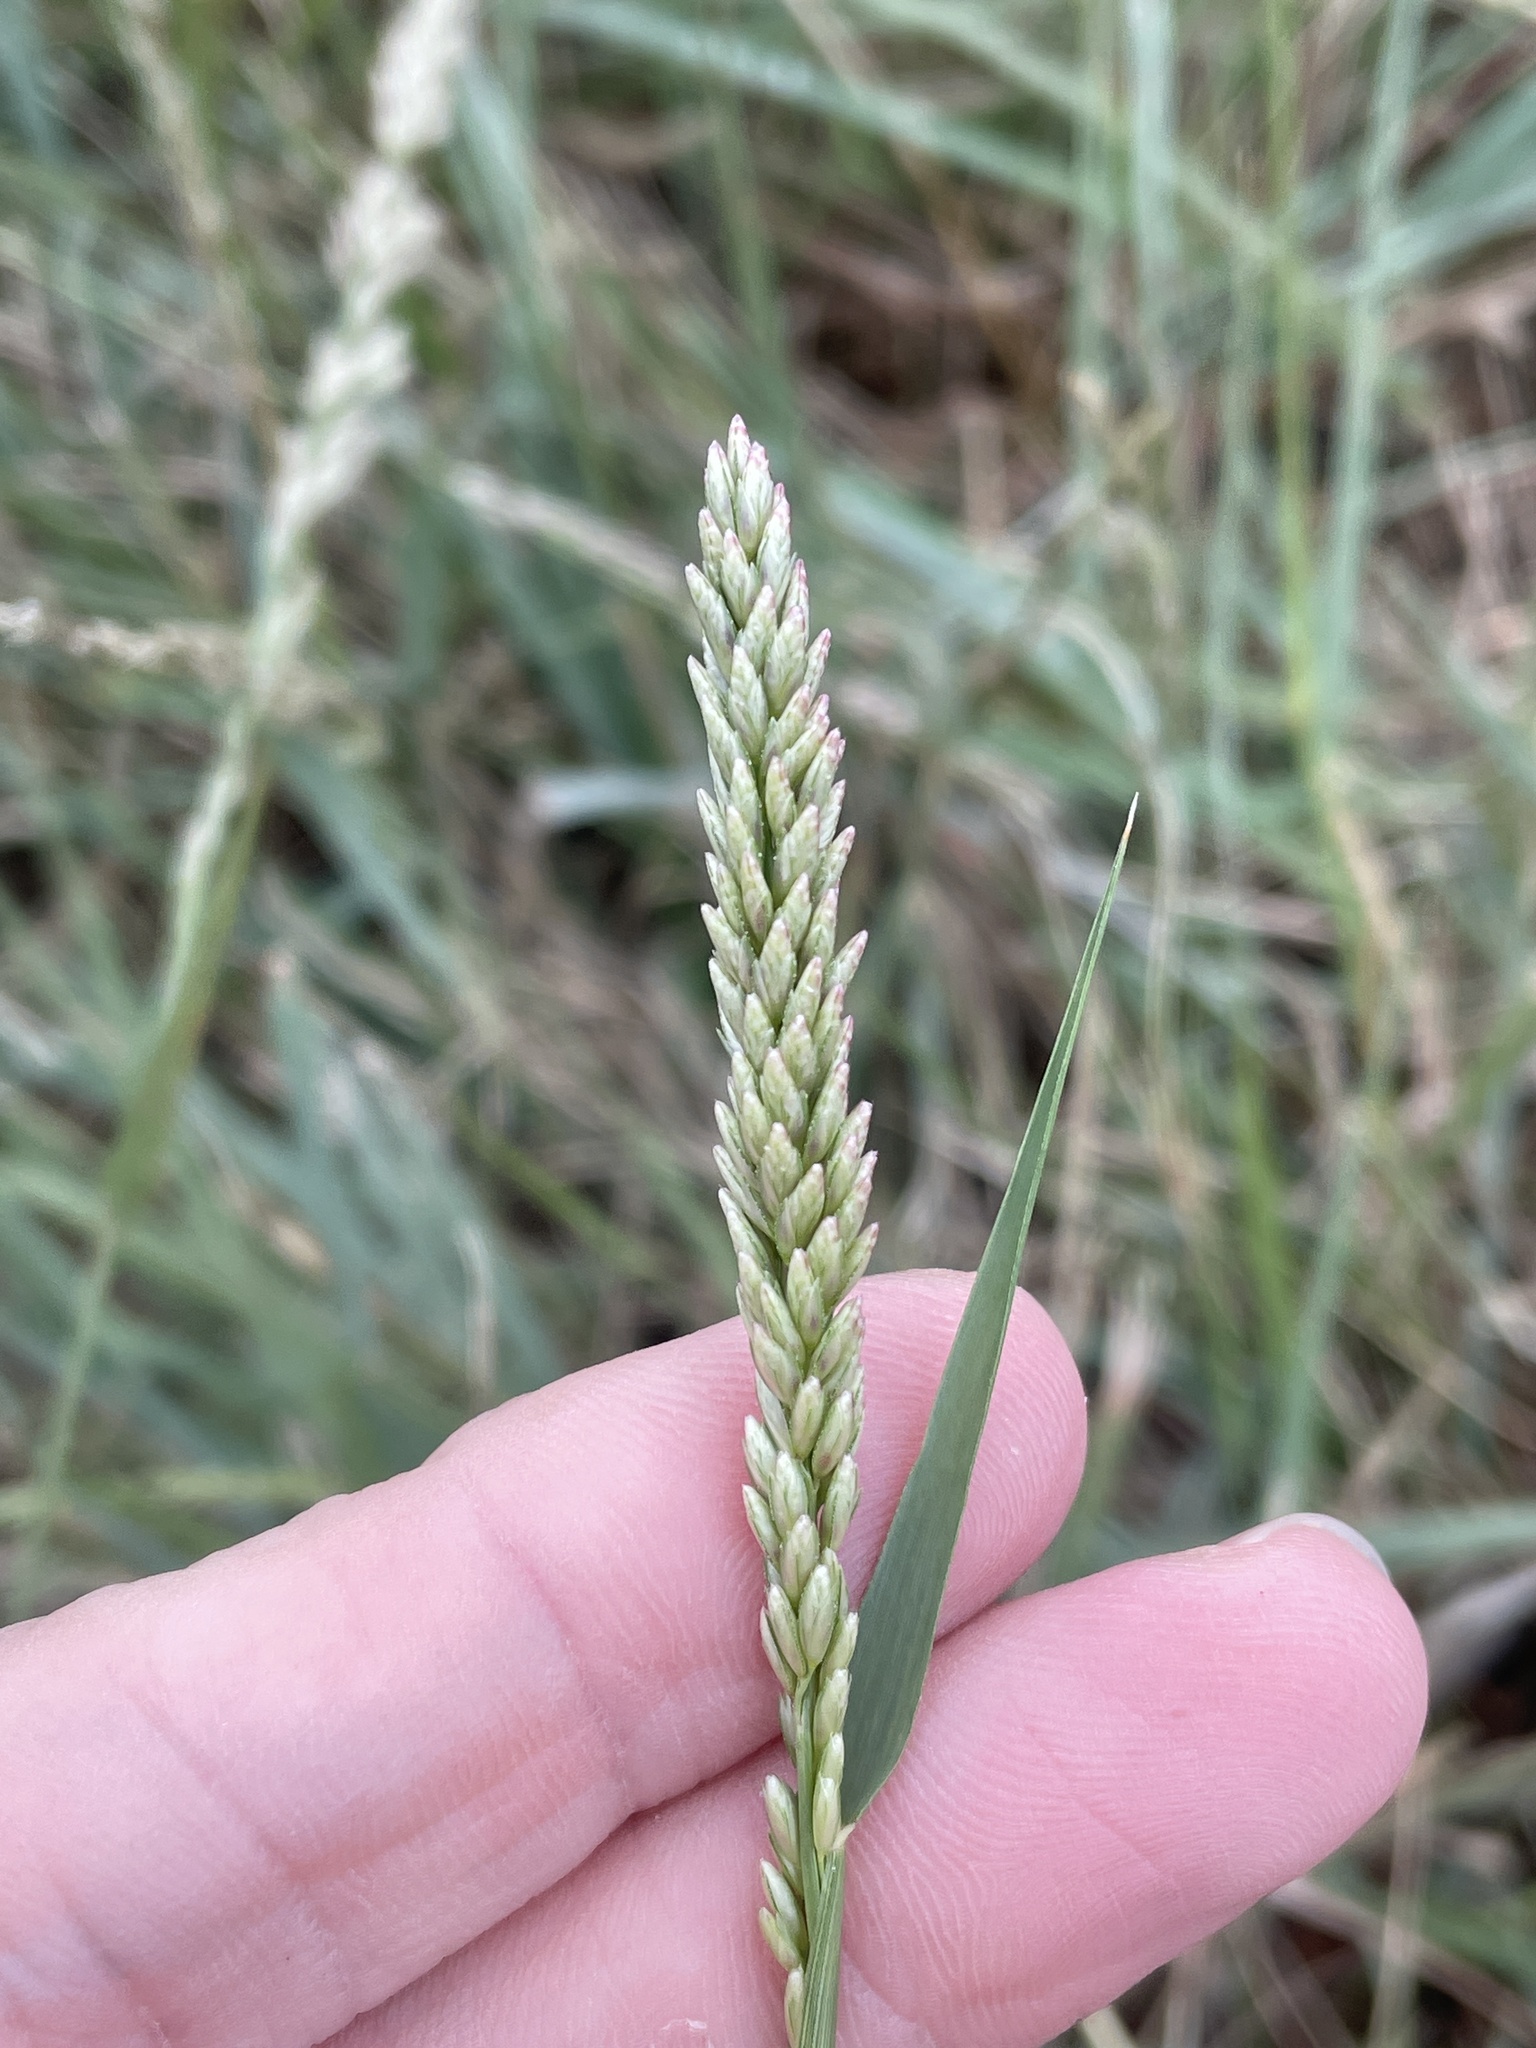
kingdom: Plantae
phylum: Tracheophyta
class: Liliopsida
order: Poales
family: Poaceae
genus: Tridens
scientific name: Tridens albescens
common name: White tridens
